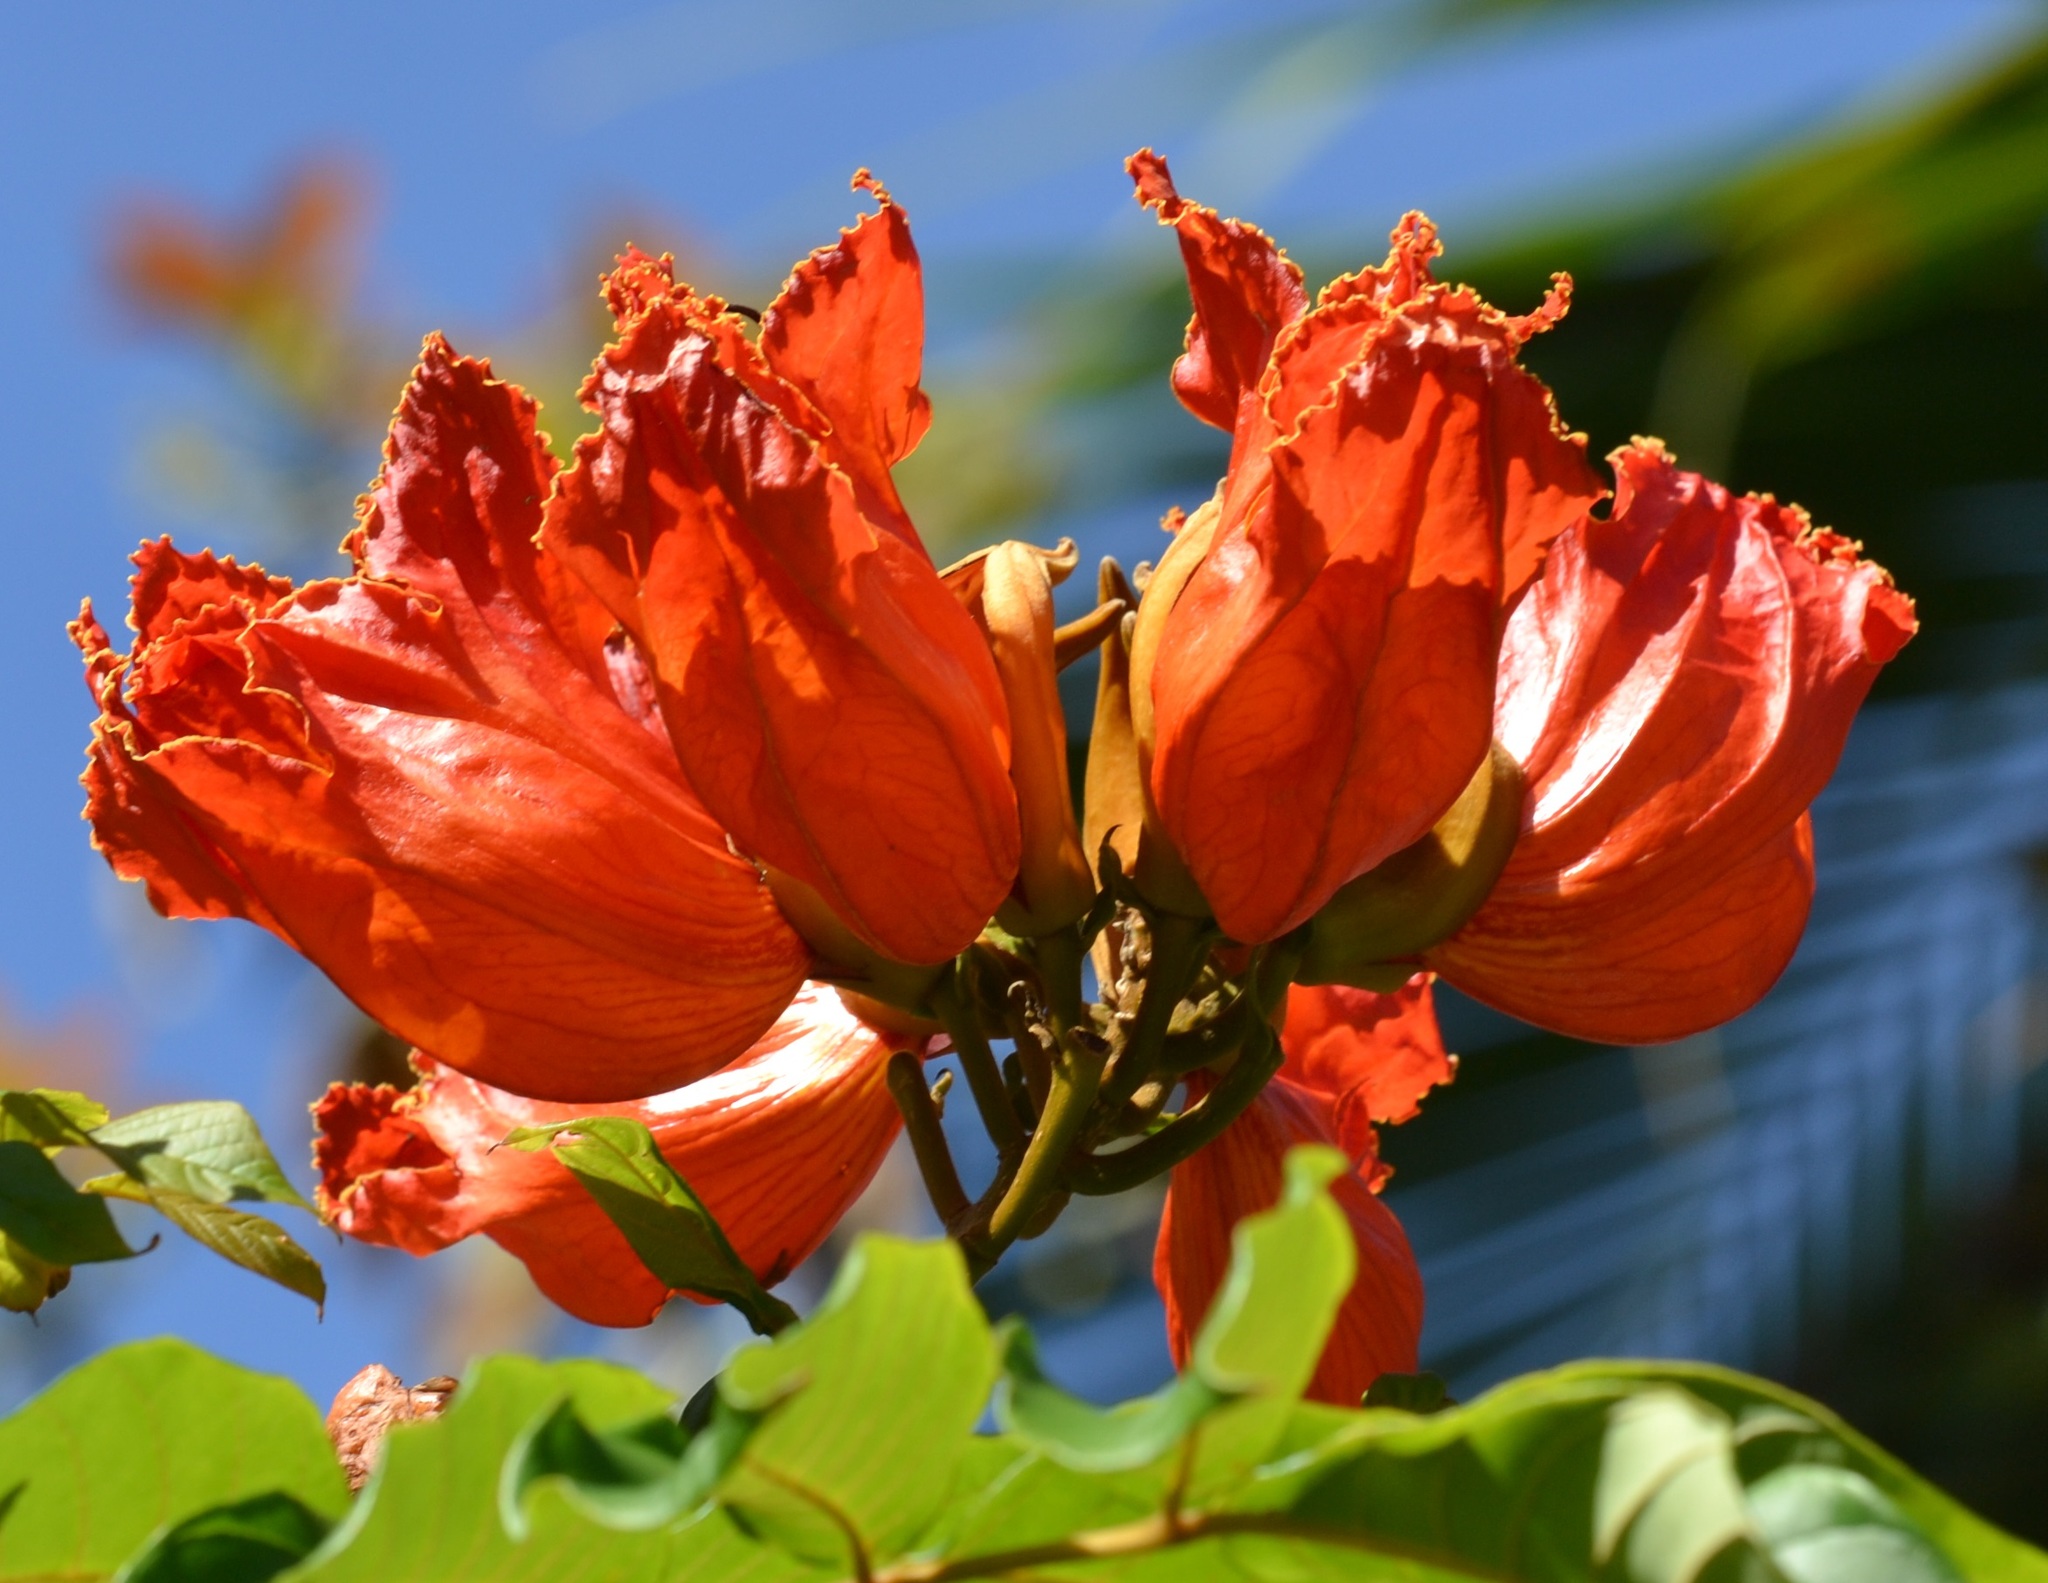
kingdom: Plantae
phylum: Tracheophyta
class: Magnoliopsida
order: Lamiales
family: Bignoniaceae
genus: Spathodea
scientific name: Spathodea campanulata
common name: African tuliptree
